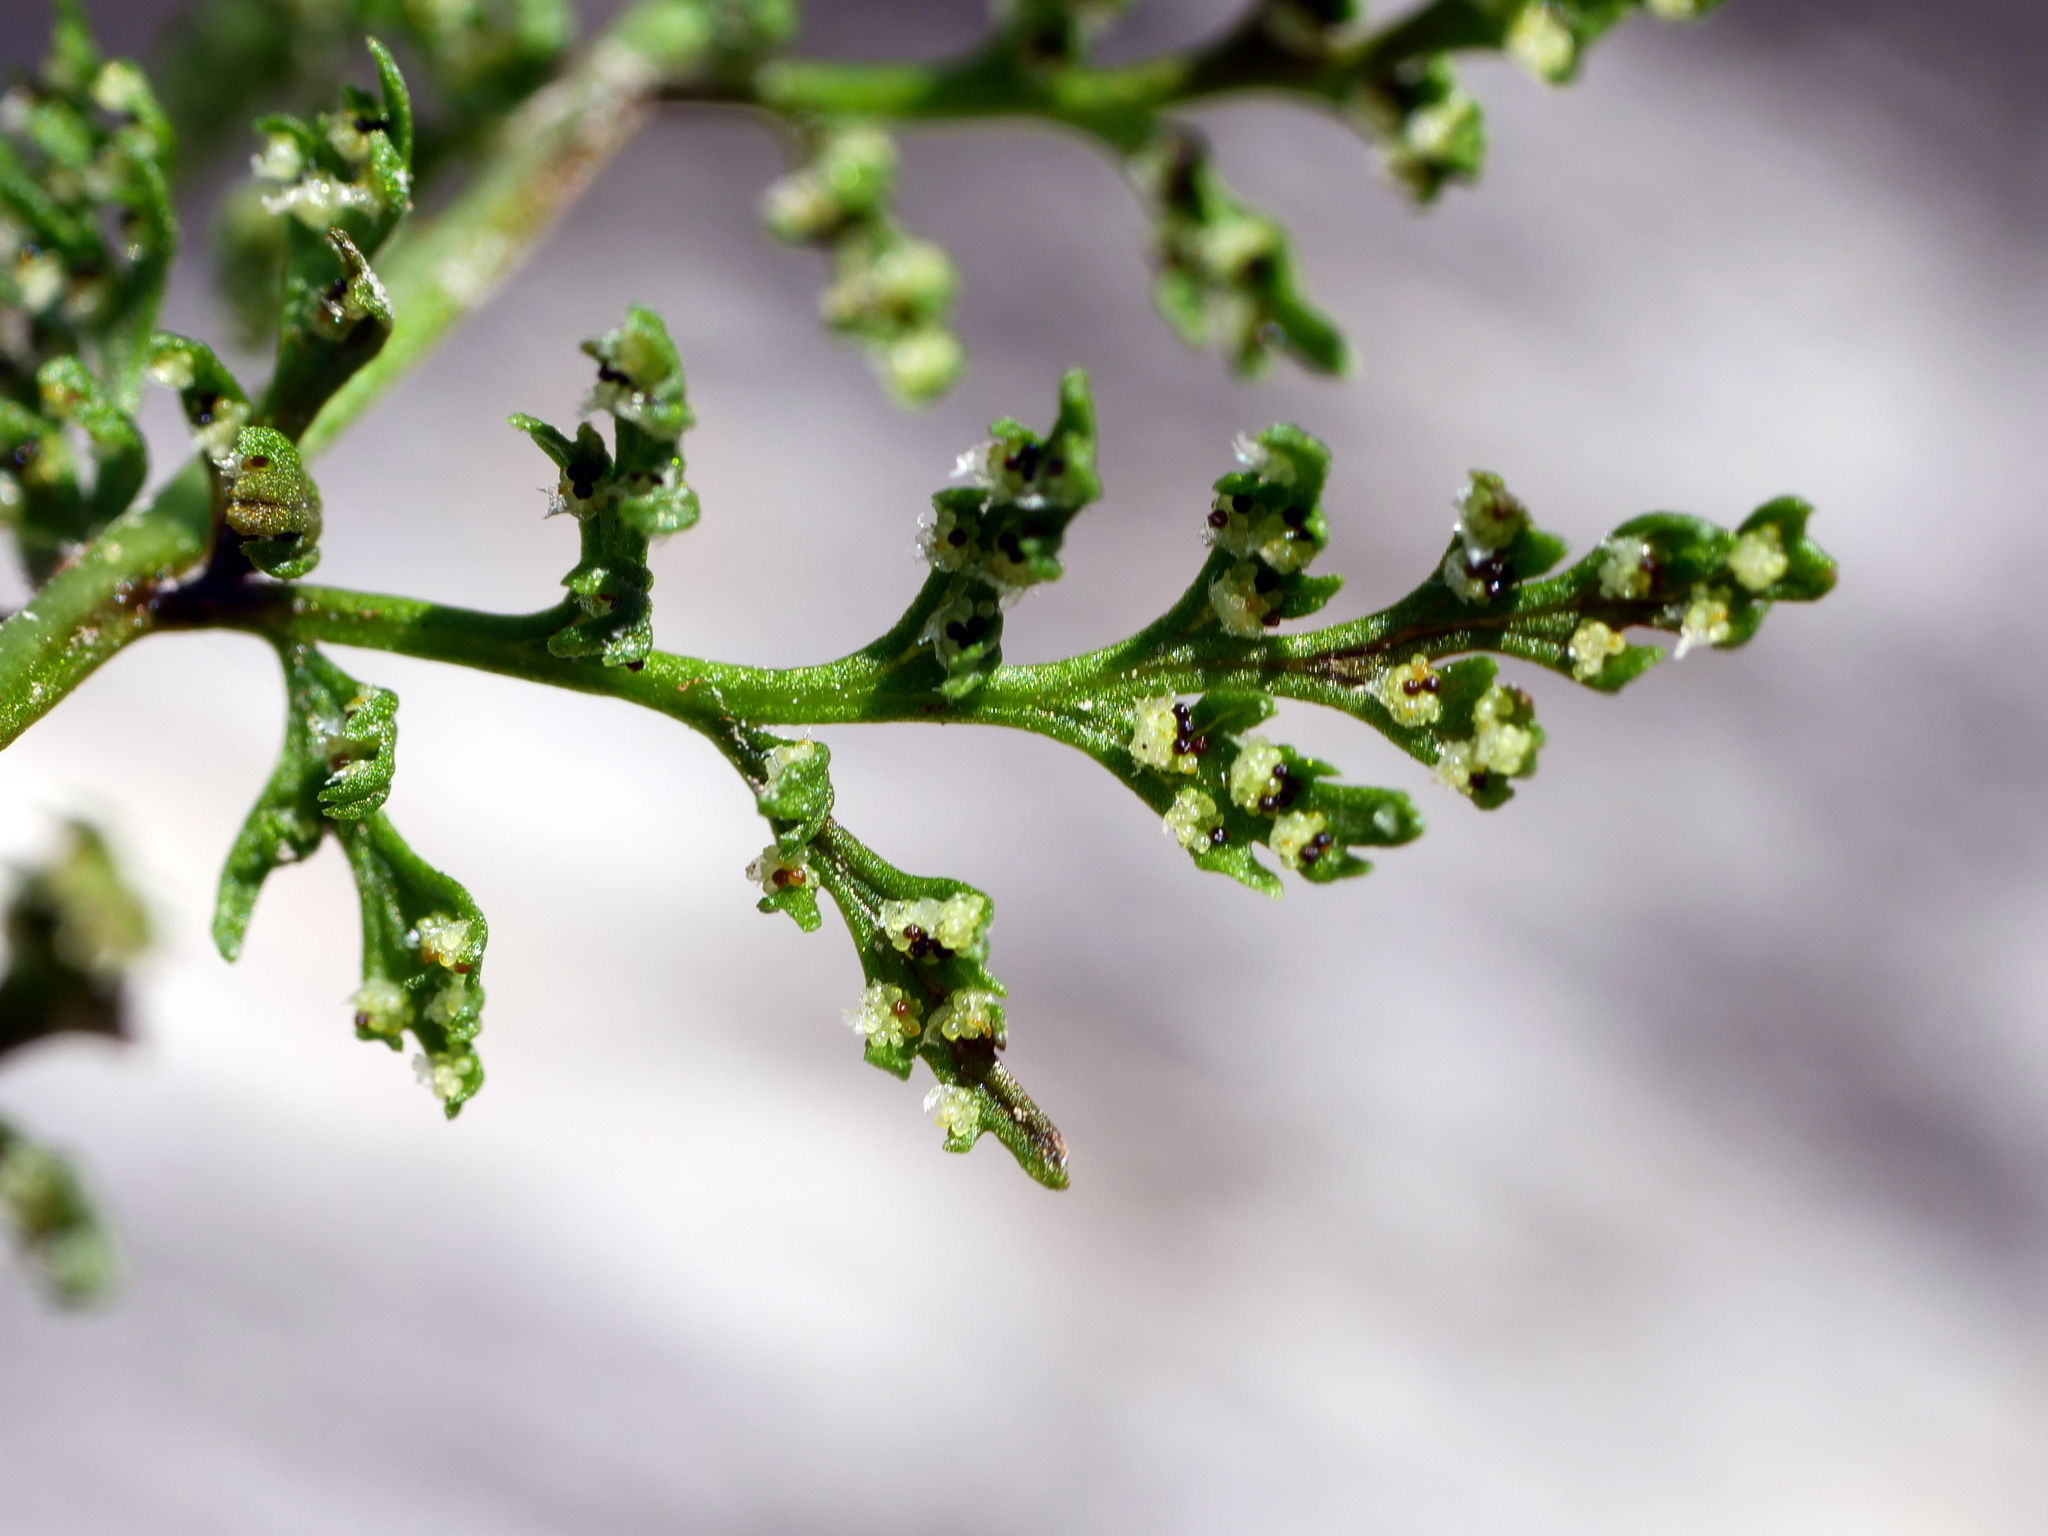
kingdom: Plantae
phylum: Tracheophyta
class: Polypodiopsida
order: Polypodiales
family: Cystopteridaceae
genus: Cystopteris
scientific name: Cystopteris alpina
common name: Alpine bladder-fern
